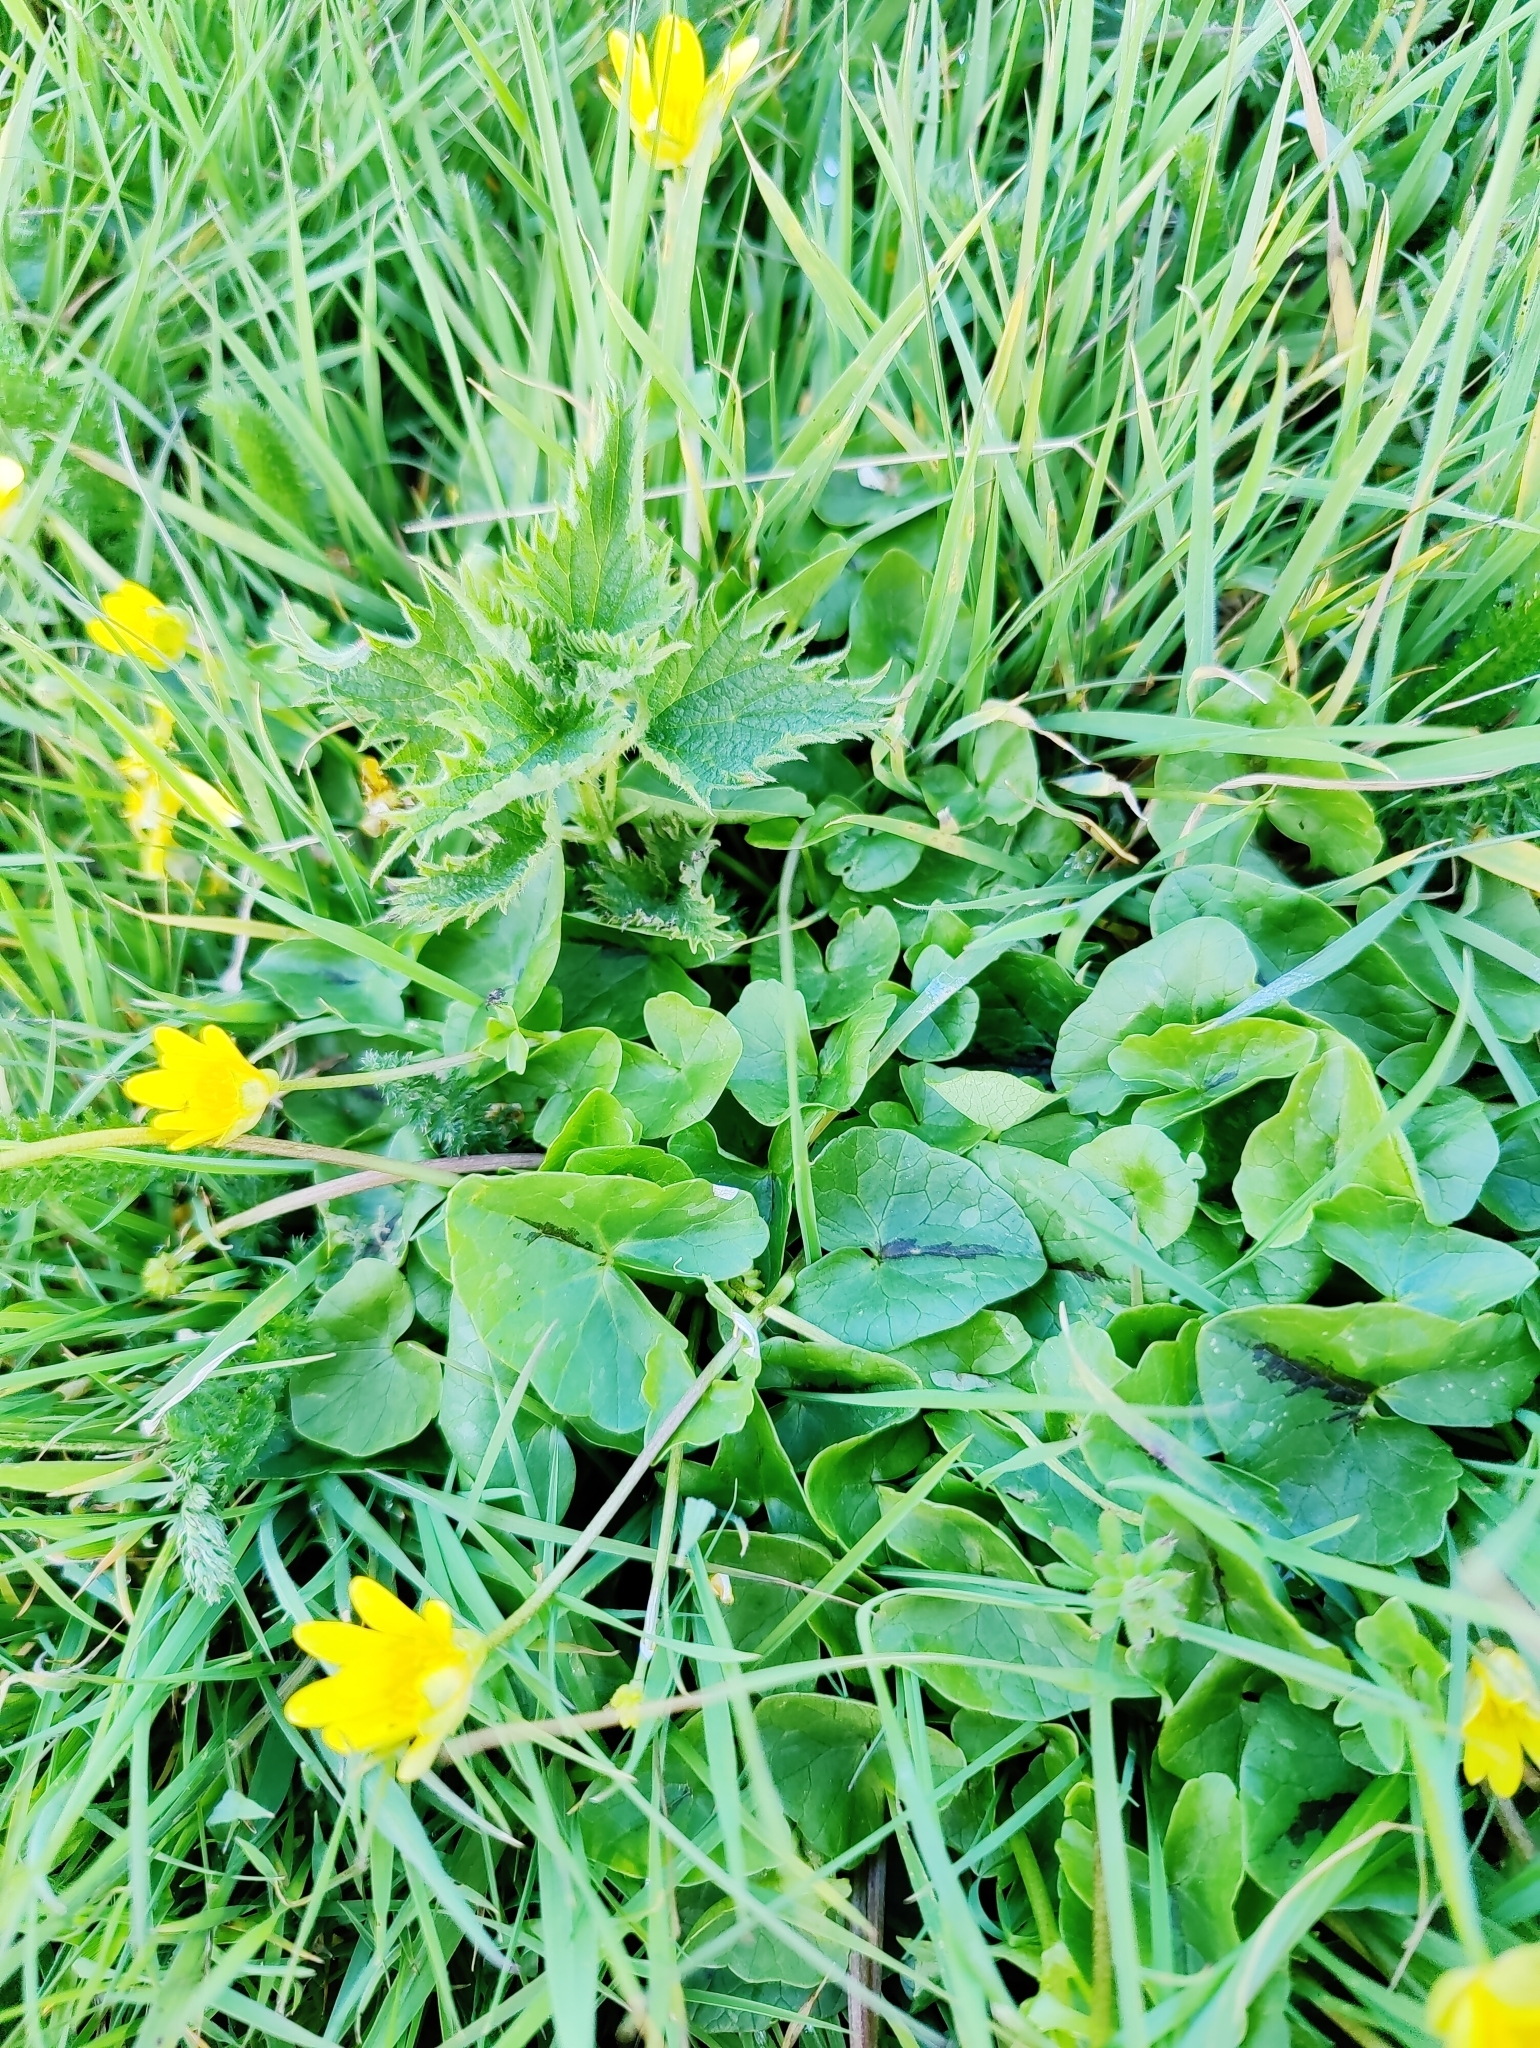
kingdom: Plantae
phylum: Tracheophyta
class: Magnoliopsida
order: Ranunculales
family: Ranunculaceae
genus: Ficaria
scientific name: Ficaria verna
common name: Lesser celandine
